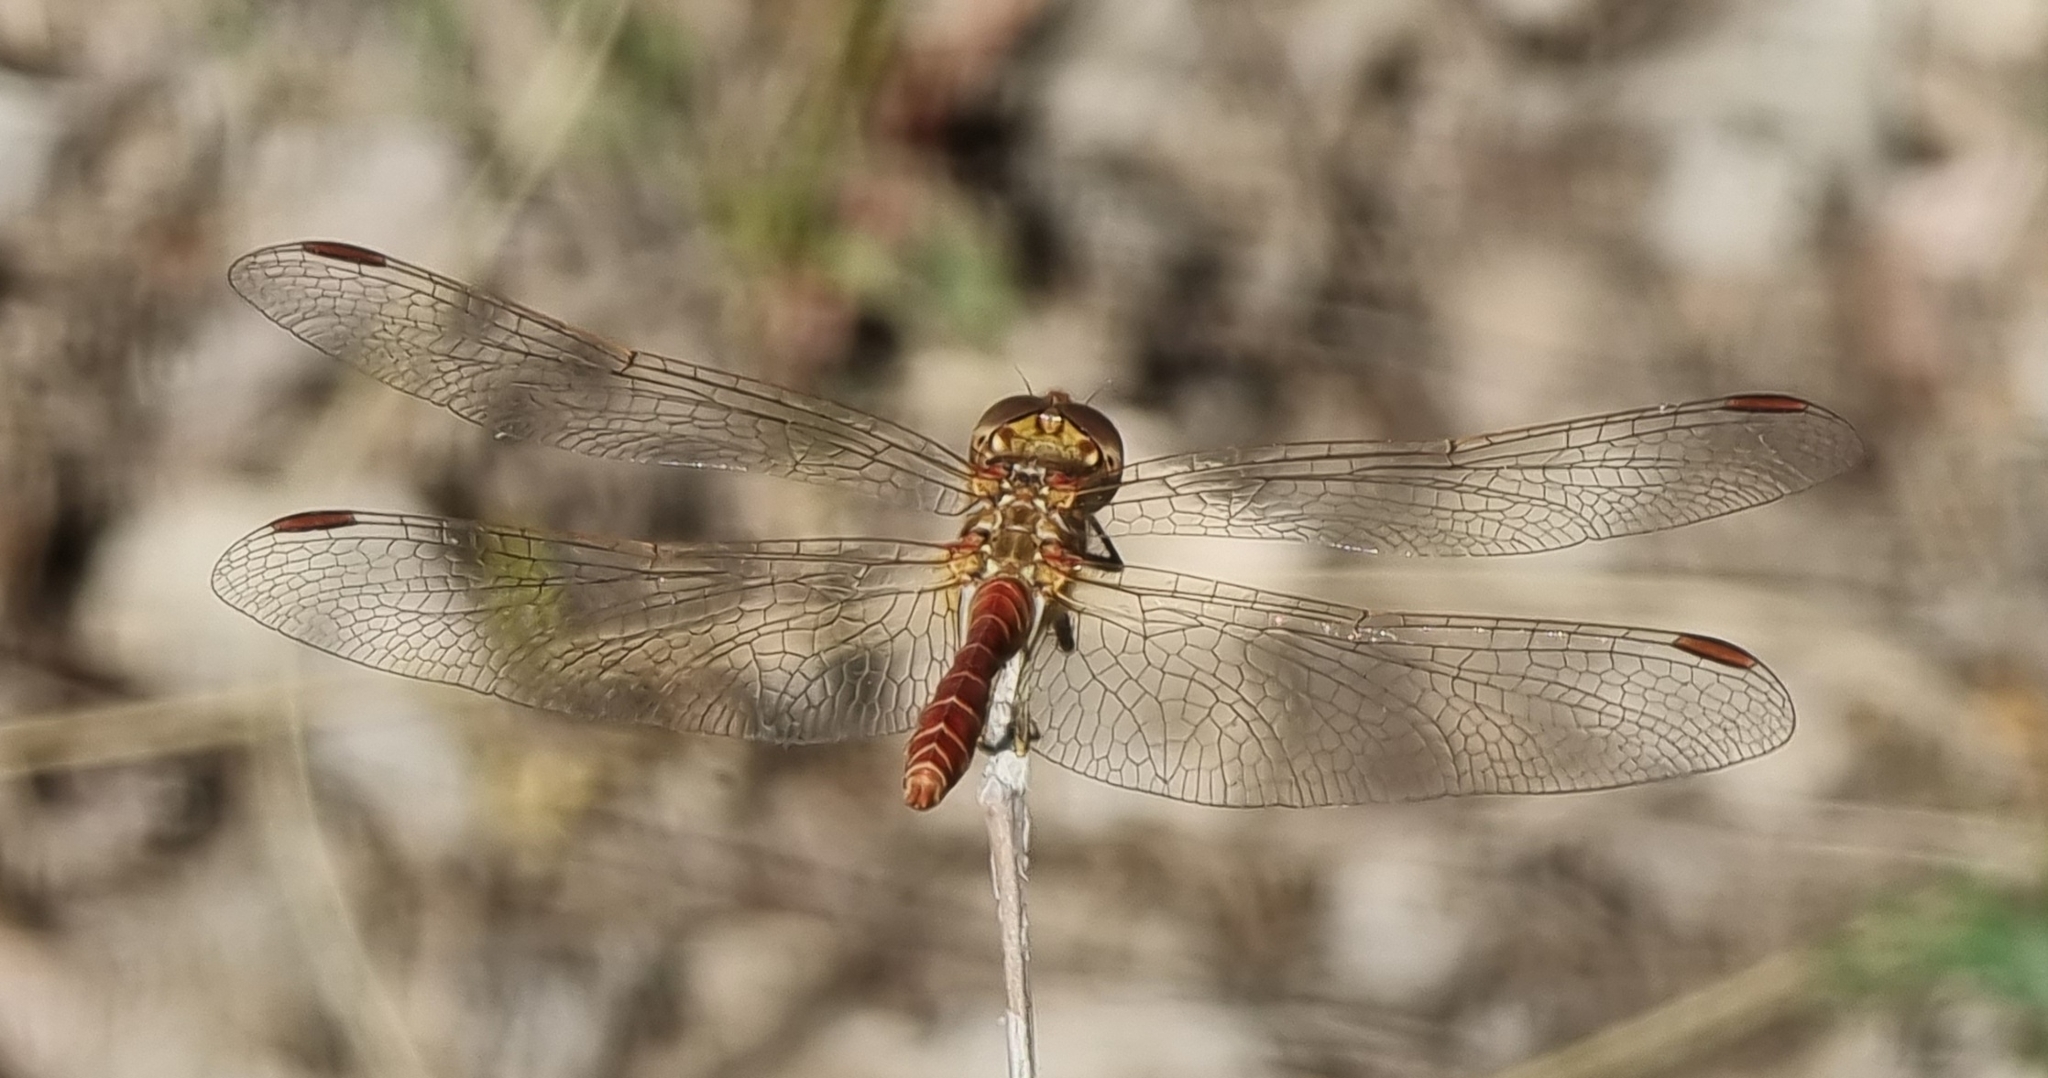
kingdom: Animalia
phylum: Arthropoda
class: Insecta
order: Odonata
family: Libellulidae
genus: Sympetrum
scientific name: Sympetrum meridionale
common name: Southern darter
